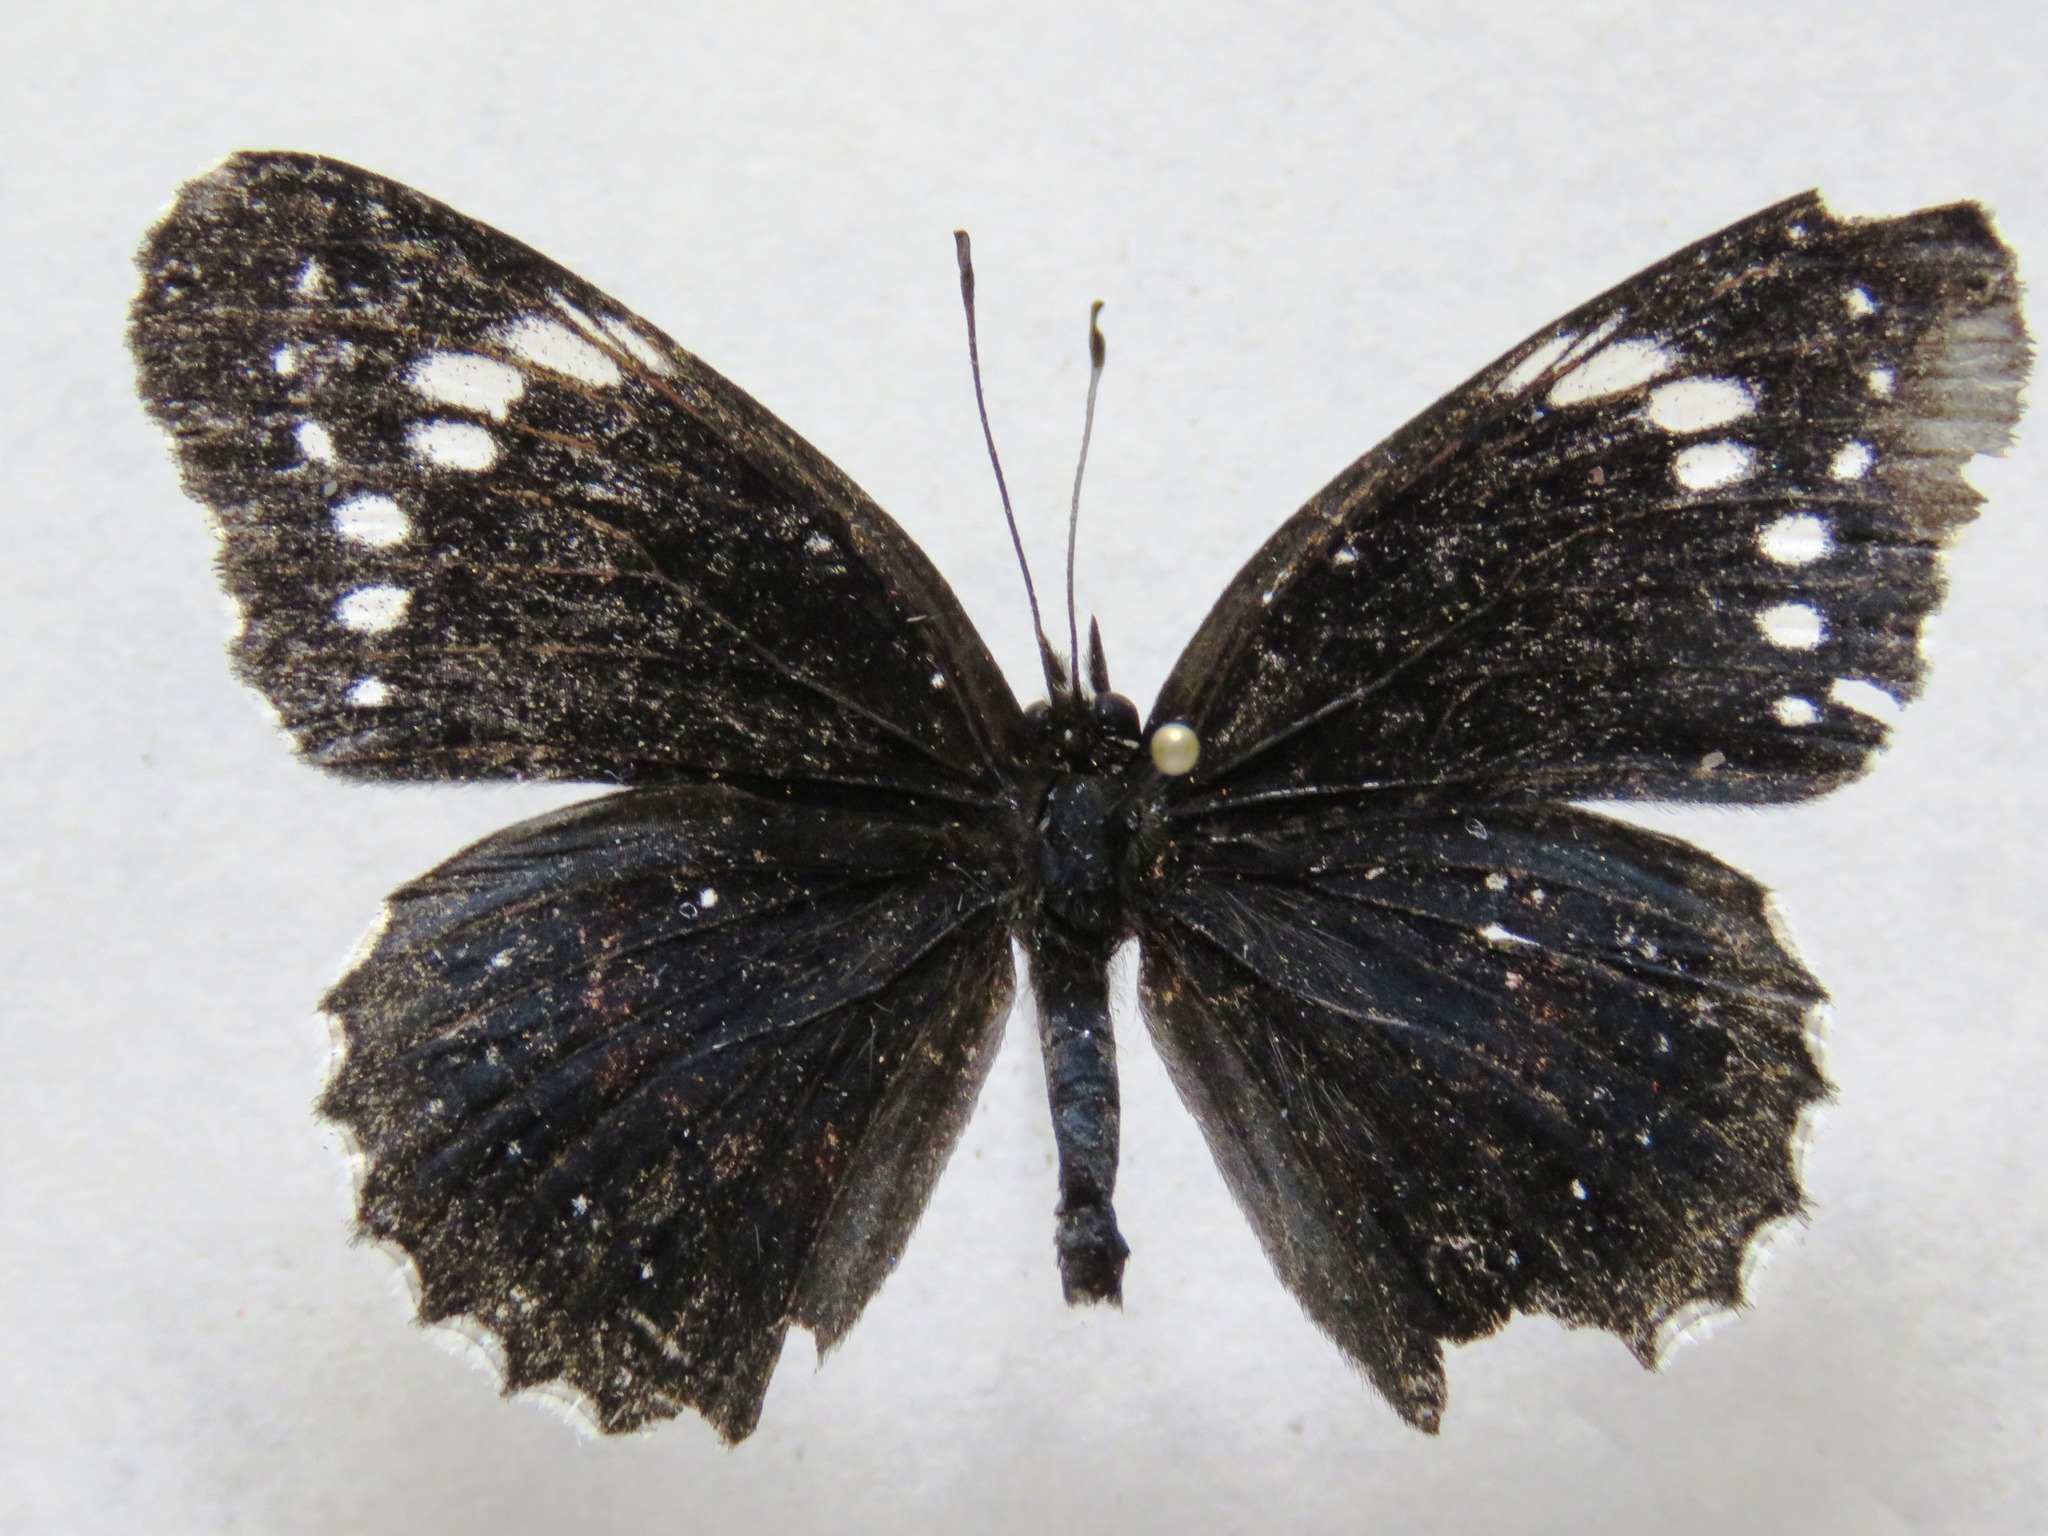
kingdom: Animalia
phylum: Arthropoda
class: Insecta
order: Lepidoptera
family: Nymphalidae
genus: Chlosyne
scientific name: Chlosyne hippodrome
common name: Simple patch
